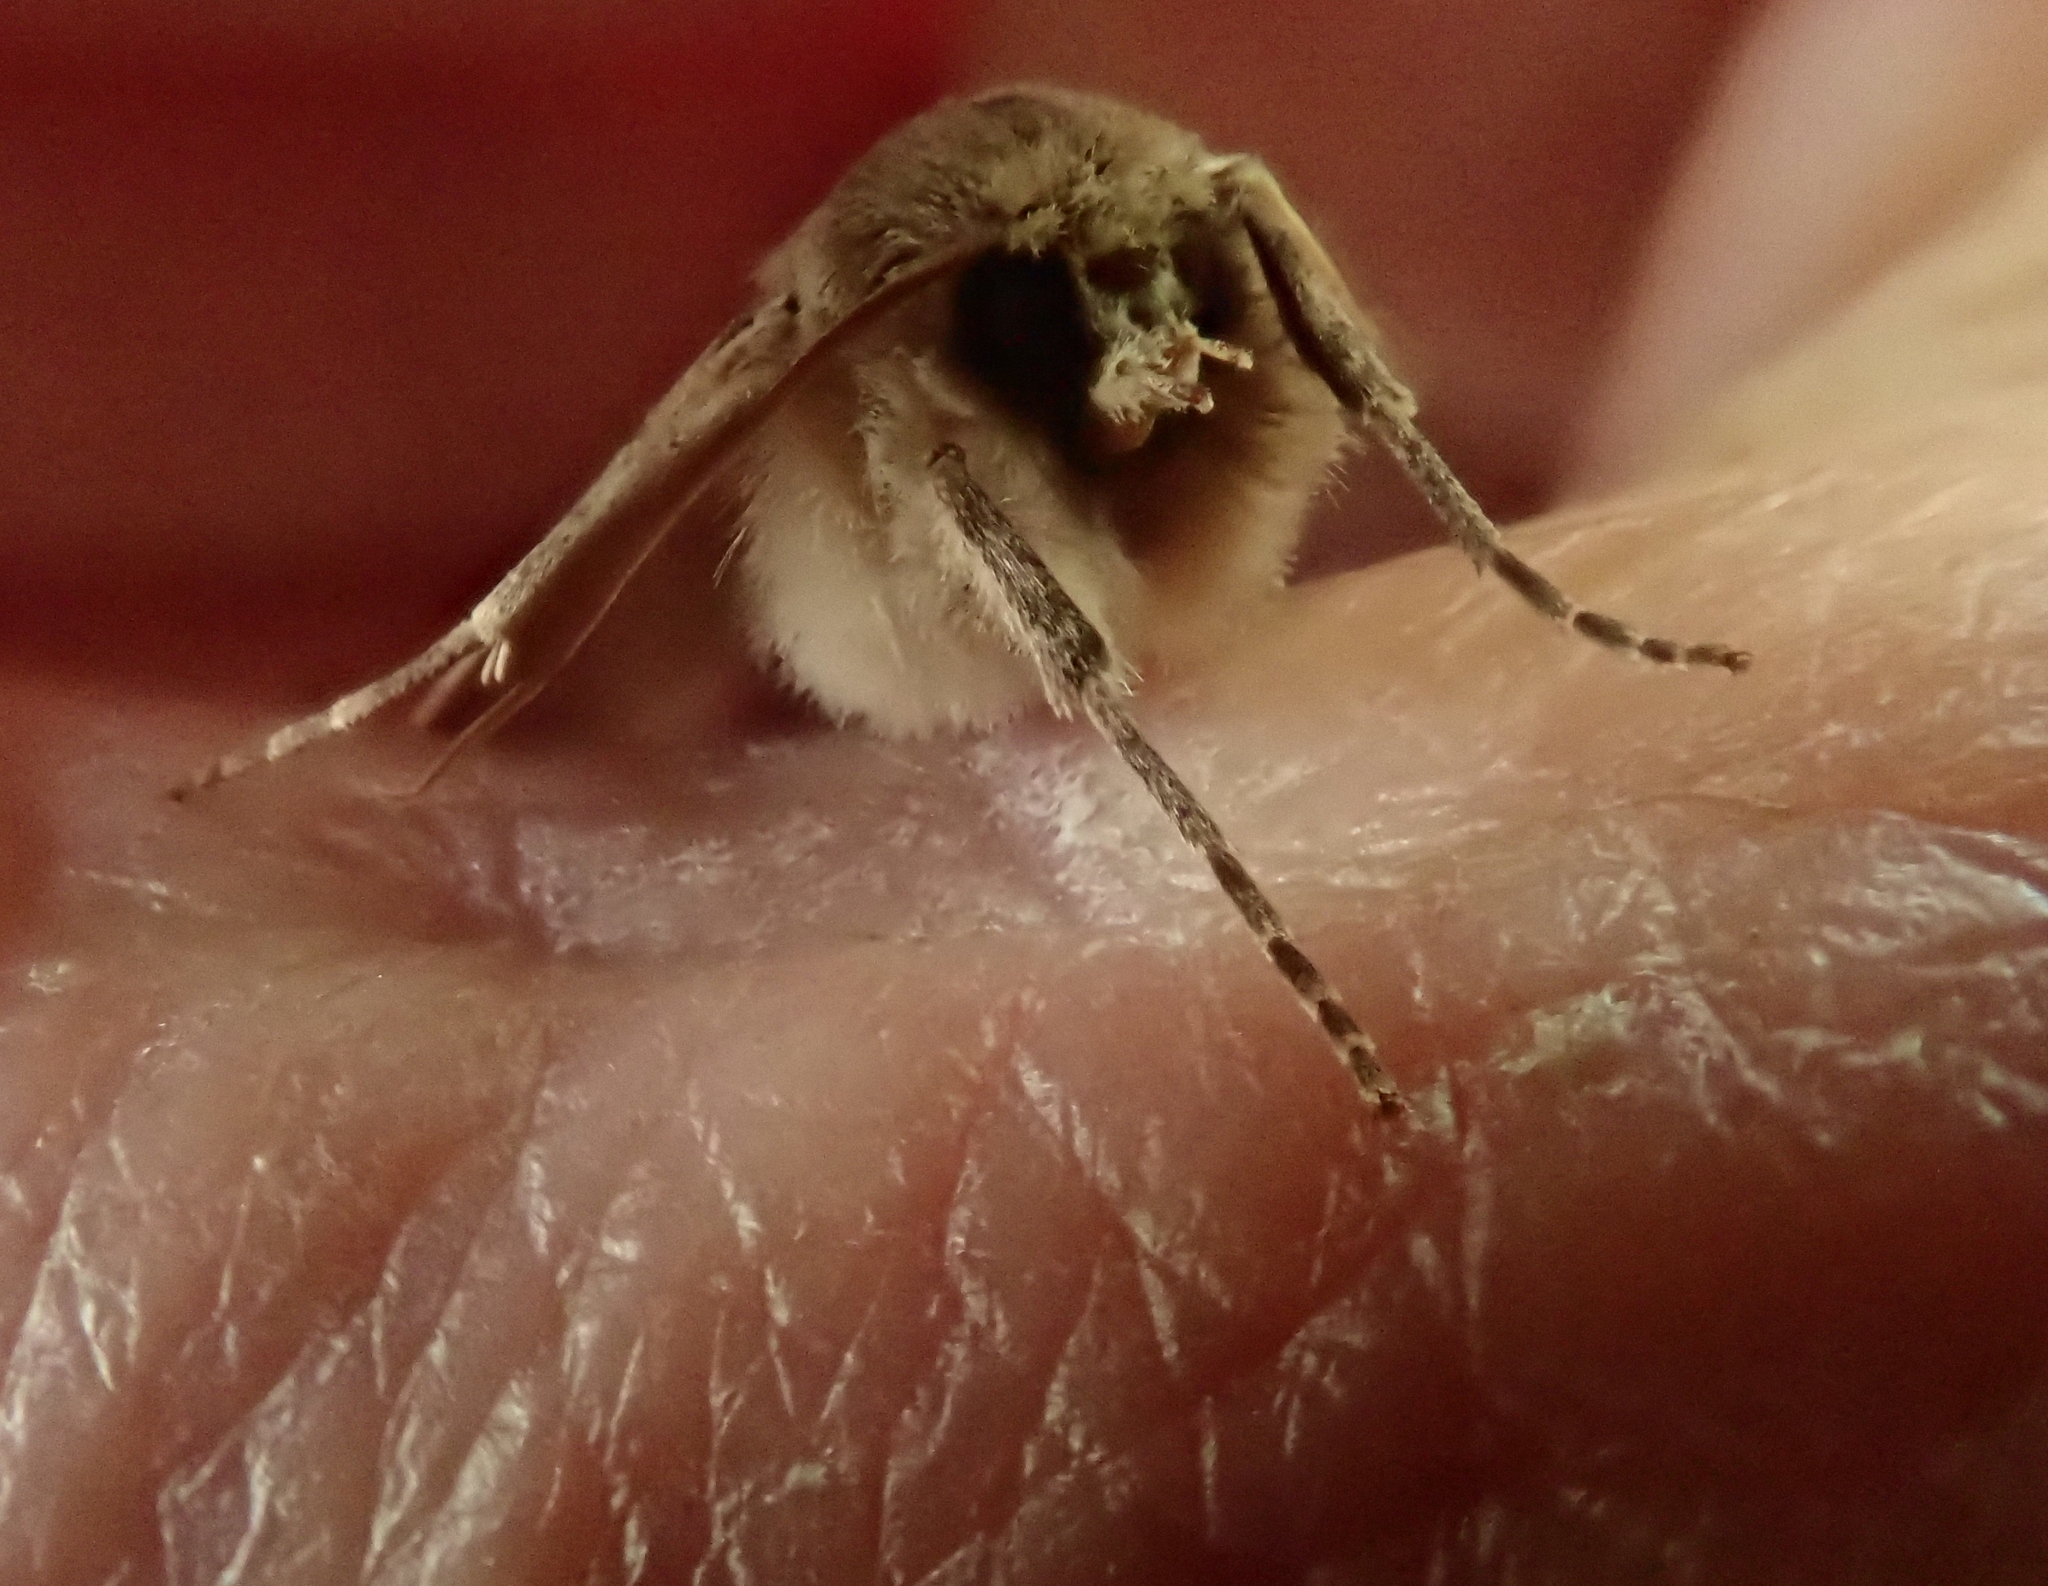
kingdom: Animalia
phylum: Arthropoda
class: Insecta
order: Lepidoptera
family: Geometridae
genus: Declana
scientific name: Declana leptomera
